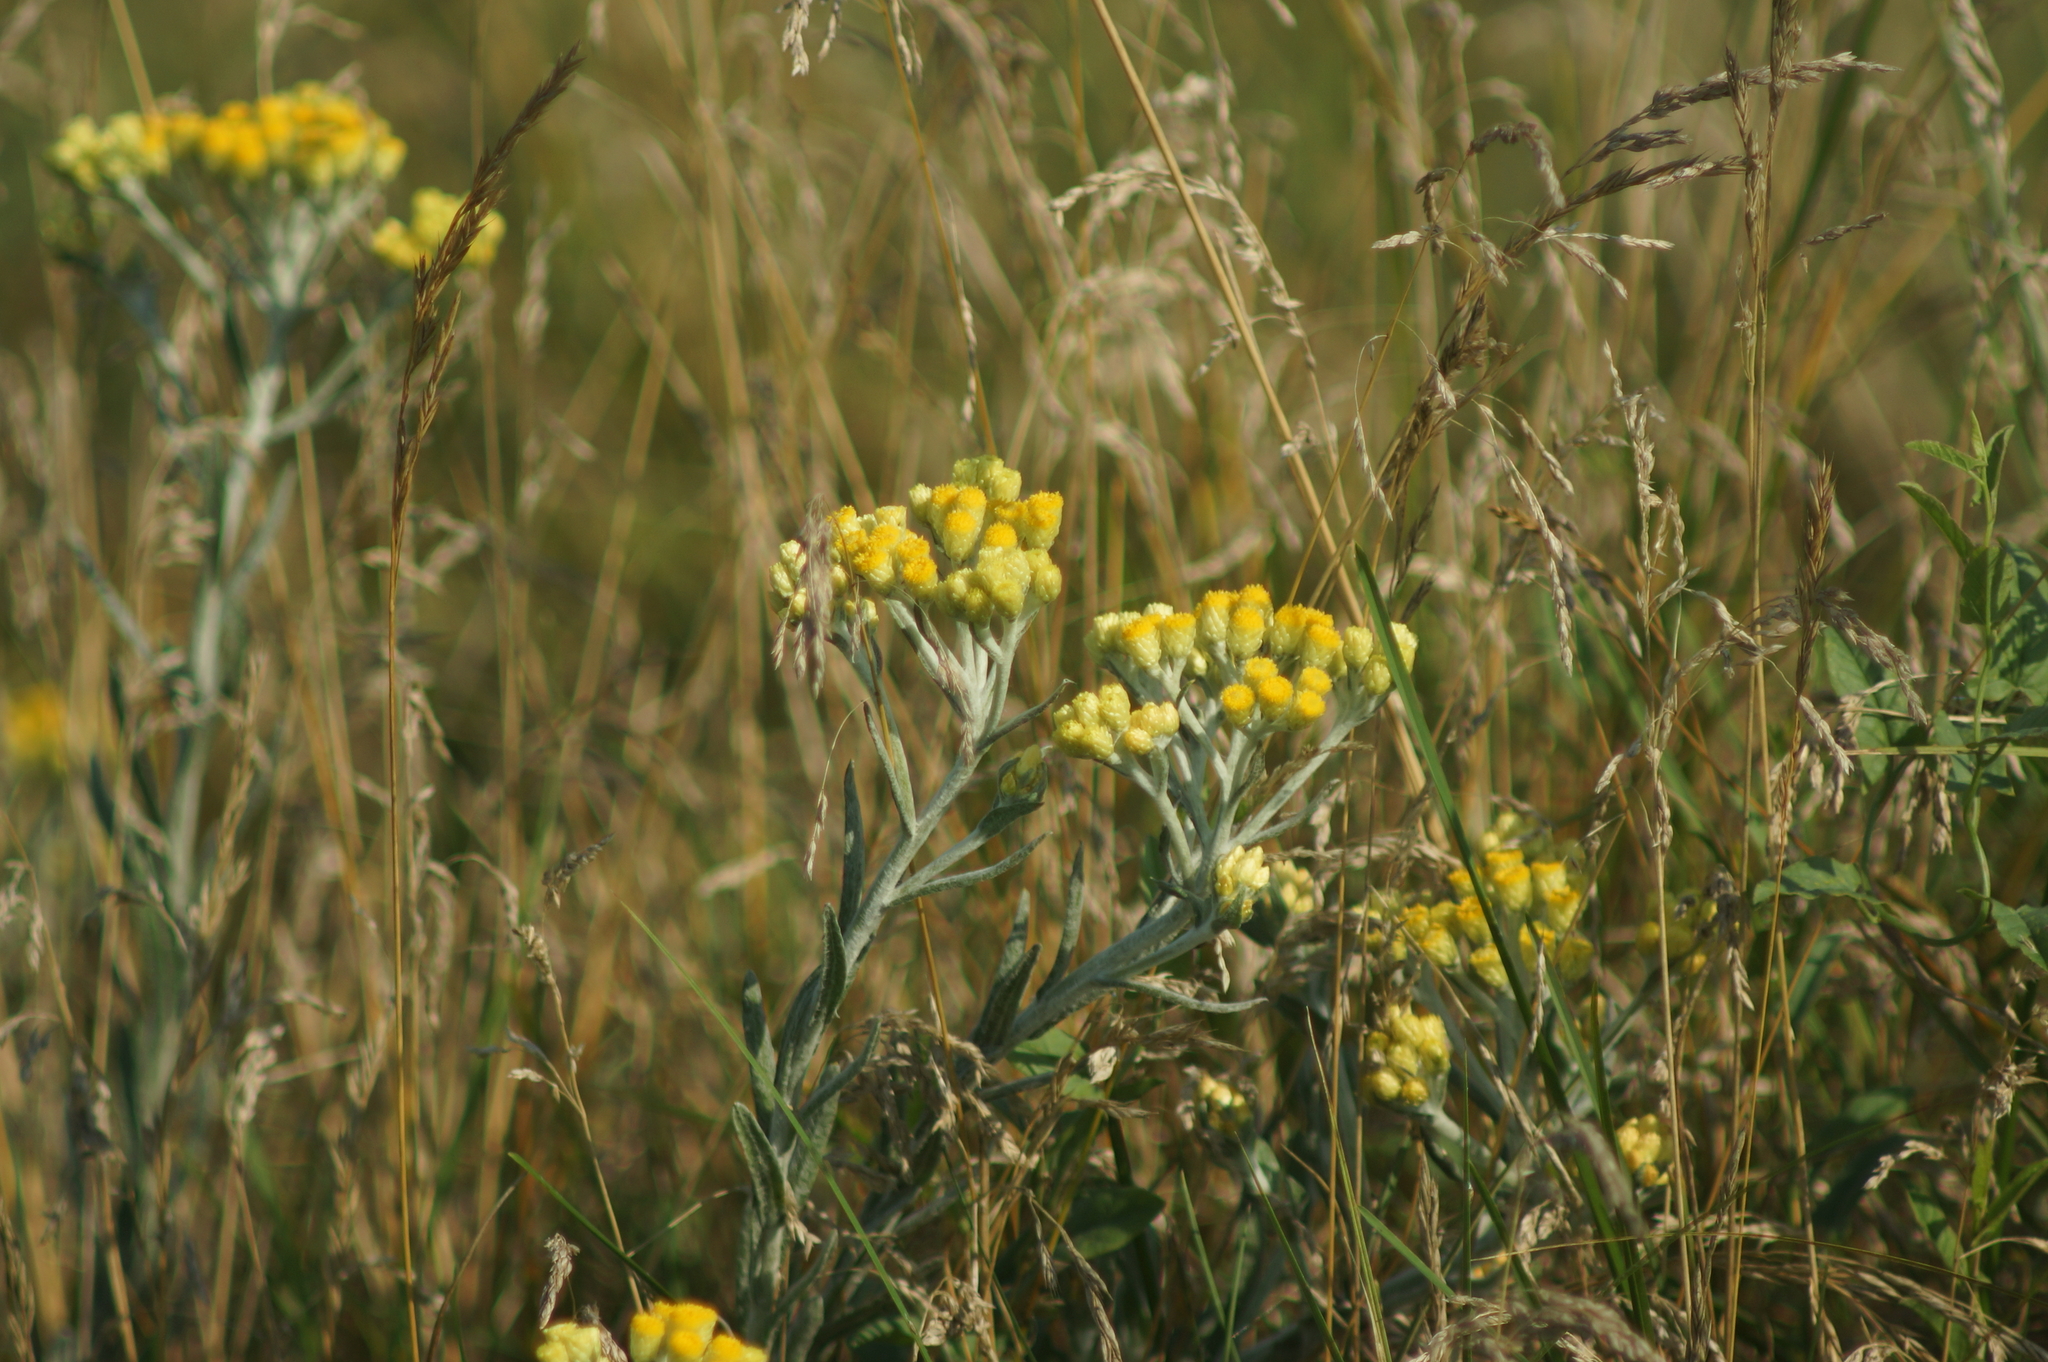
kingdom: Plantae
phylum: Tracheophyta
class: Magnoliopsida
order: Asterales
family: Asteraceae
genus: Helichrysum
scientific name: Helichrysum arenarium
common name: Strawflower
